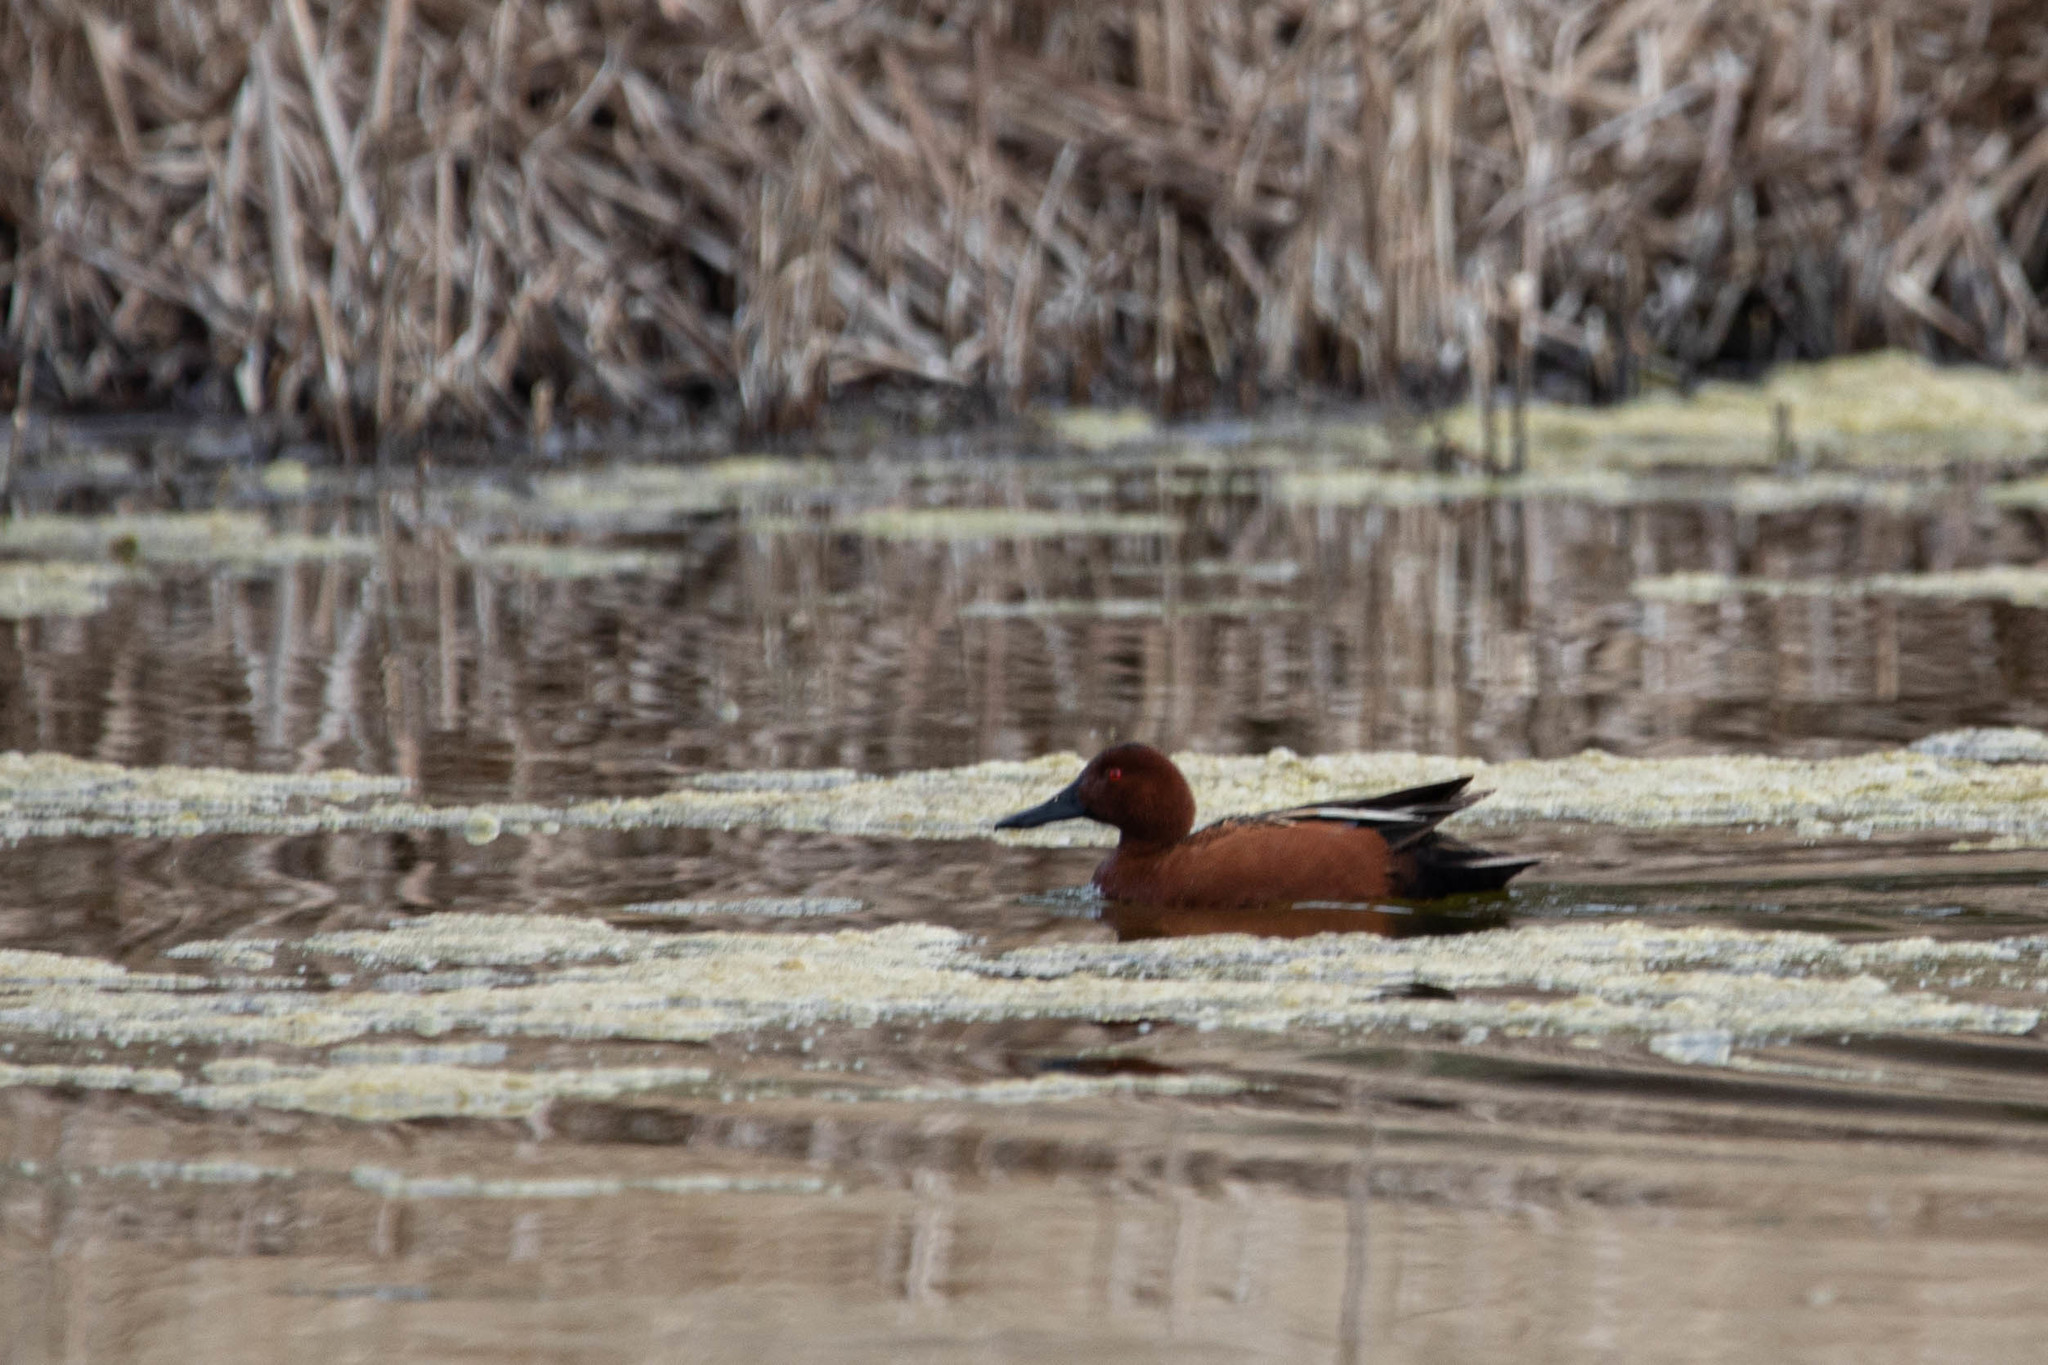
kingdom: Animalia
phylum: Chordata
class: Aves
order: Anseriformes
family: Anatidae
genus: Spatula
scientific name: Spatula cyanoptera
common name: Cinnamon teal
